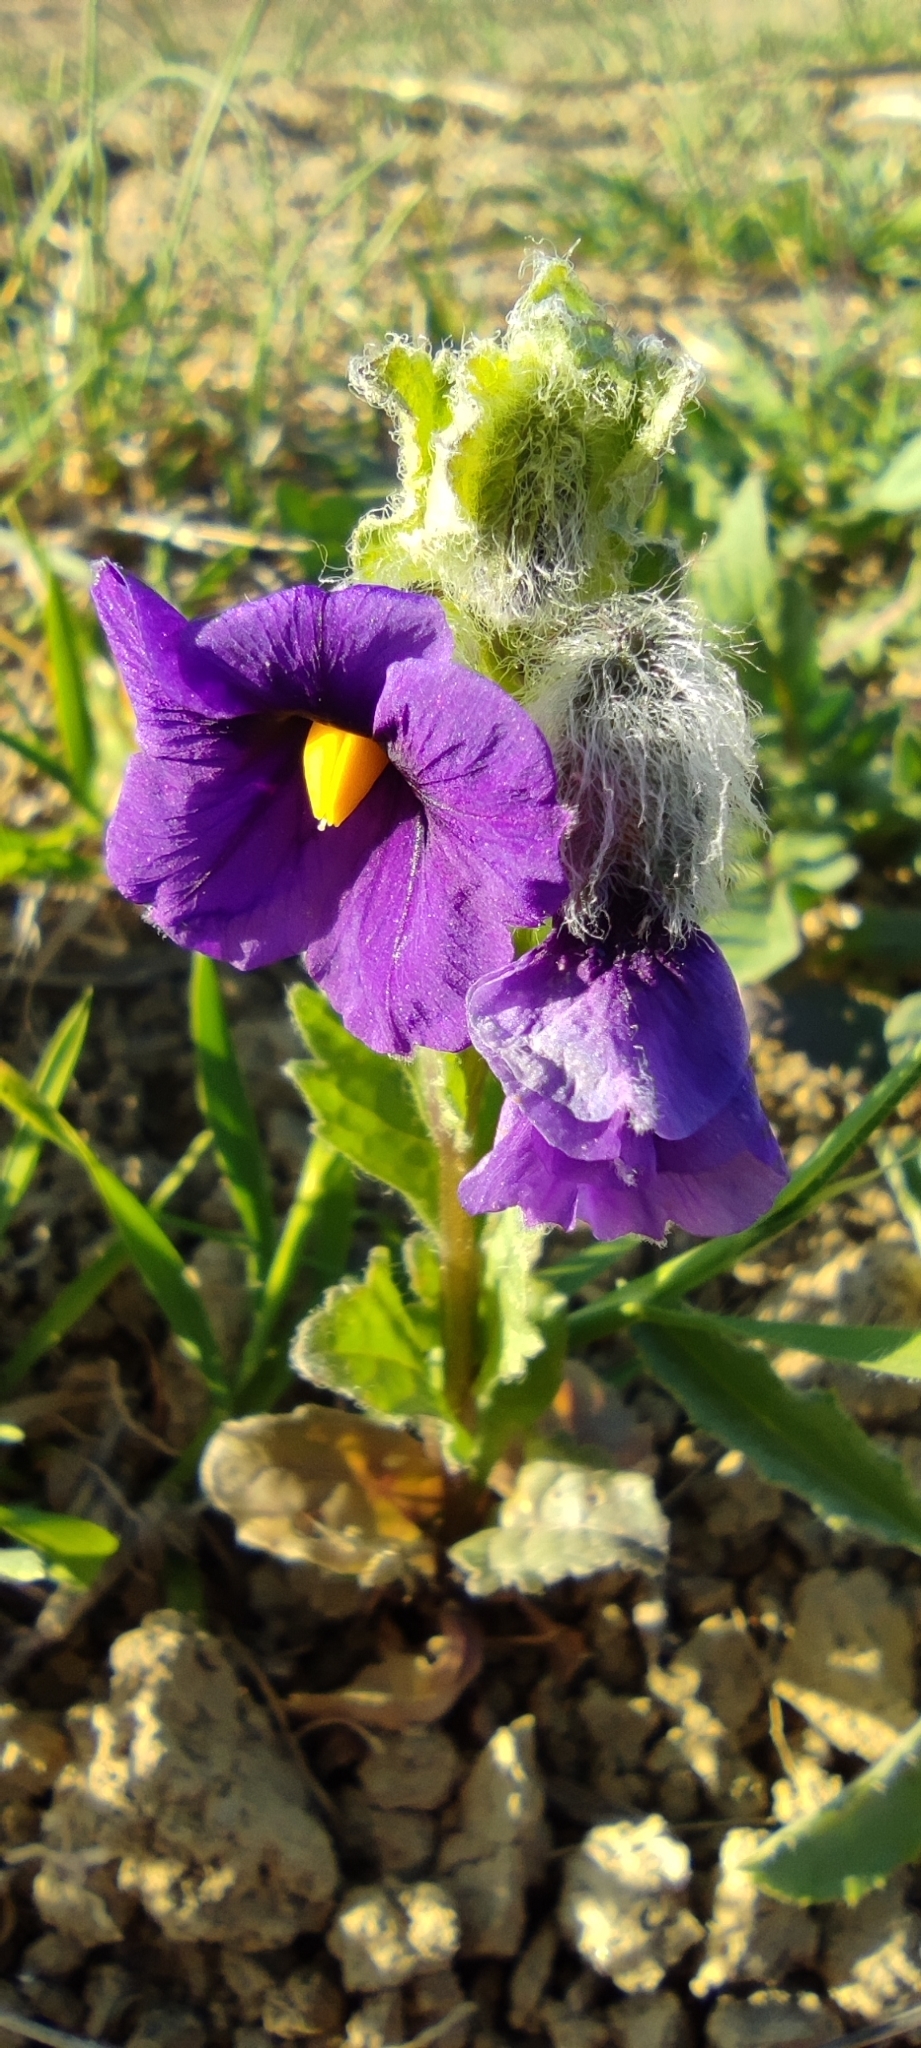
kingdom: Plantae
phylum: Tracheophyta
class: Magnoliopsida
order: Solanales
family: Solanaceae
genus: Solanum
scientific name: Solanum herculeum
